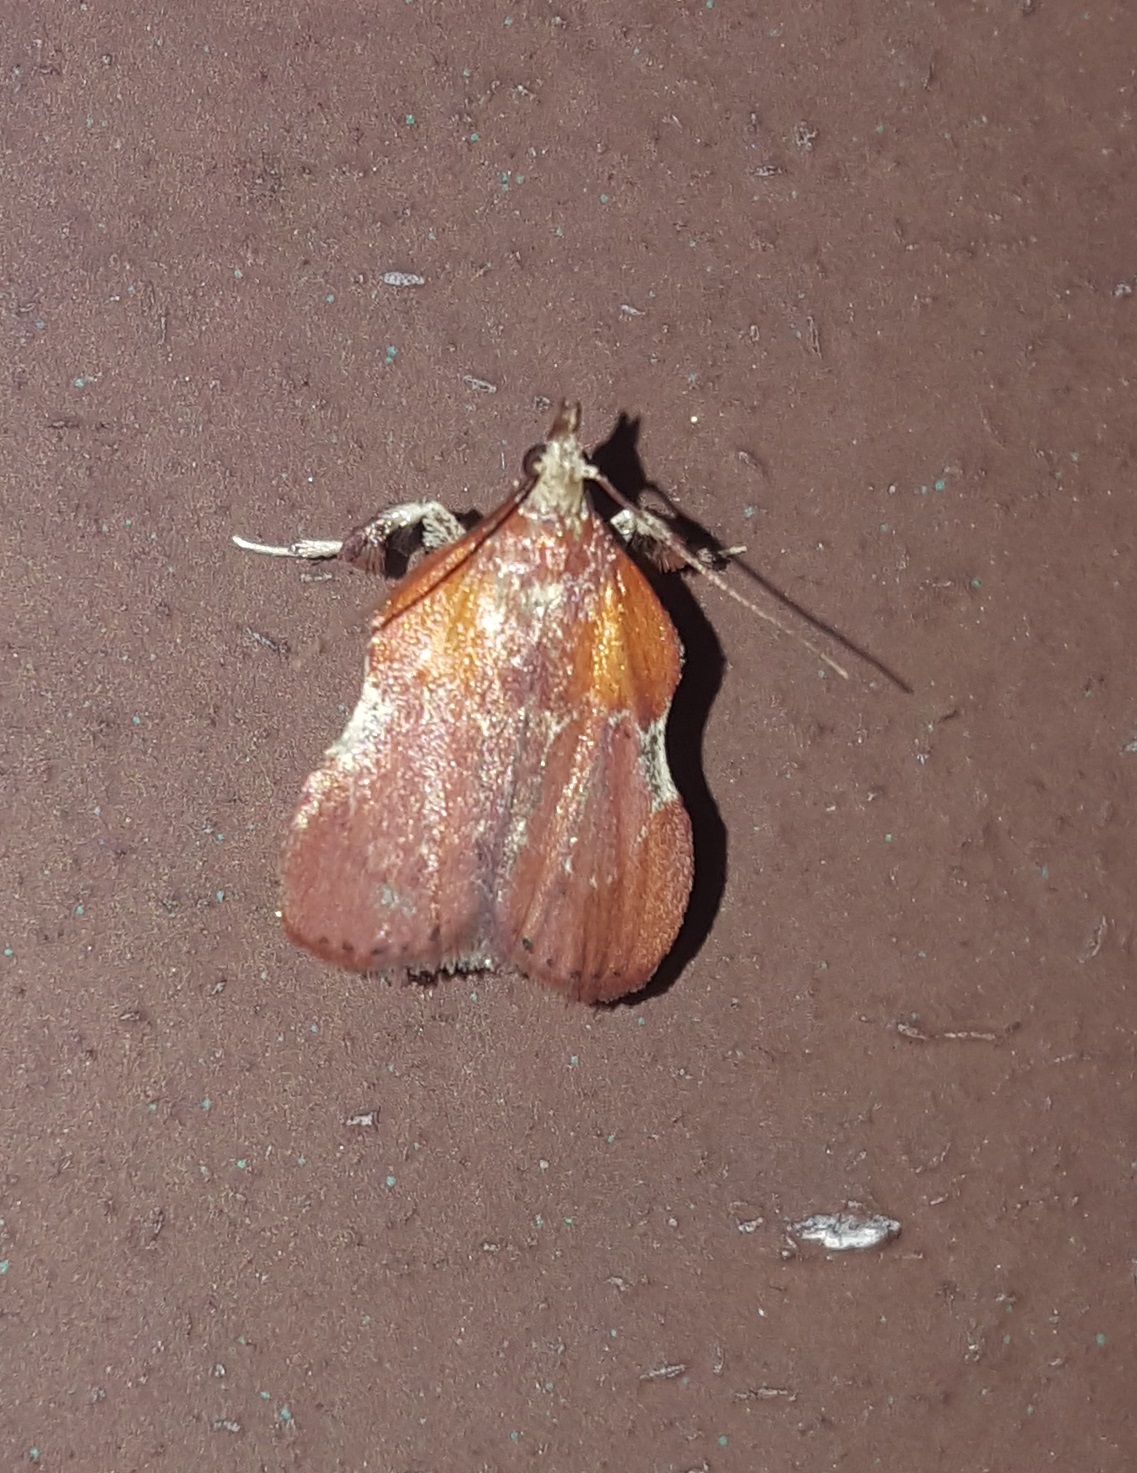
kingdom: Animalia
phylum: Arthropoda
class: Insecta
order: Lepidoptera
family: Pyralidae
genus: Galasa
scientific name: Galasa nigrinodis
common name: Boxwood leaftier moth
